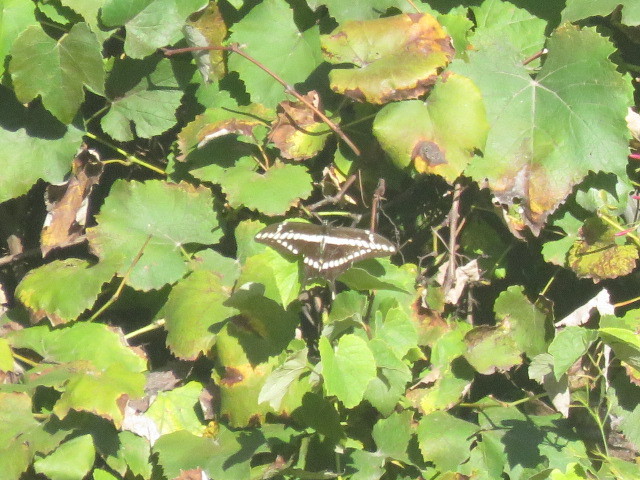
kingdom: Animalia
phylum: Arthropoda
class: Insecta
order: Lepidoptera
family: Papilionidae
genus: Papilio
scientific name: Papilio thoas
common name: King swallowtail
